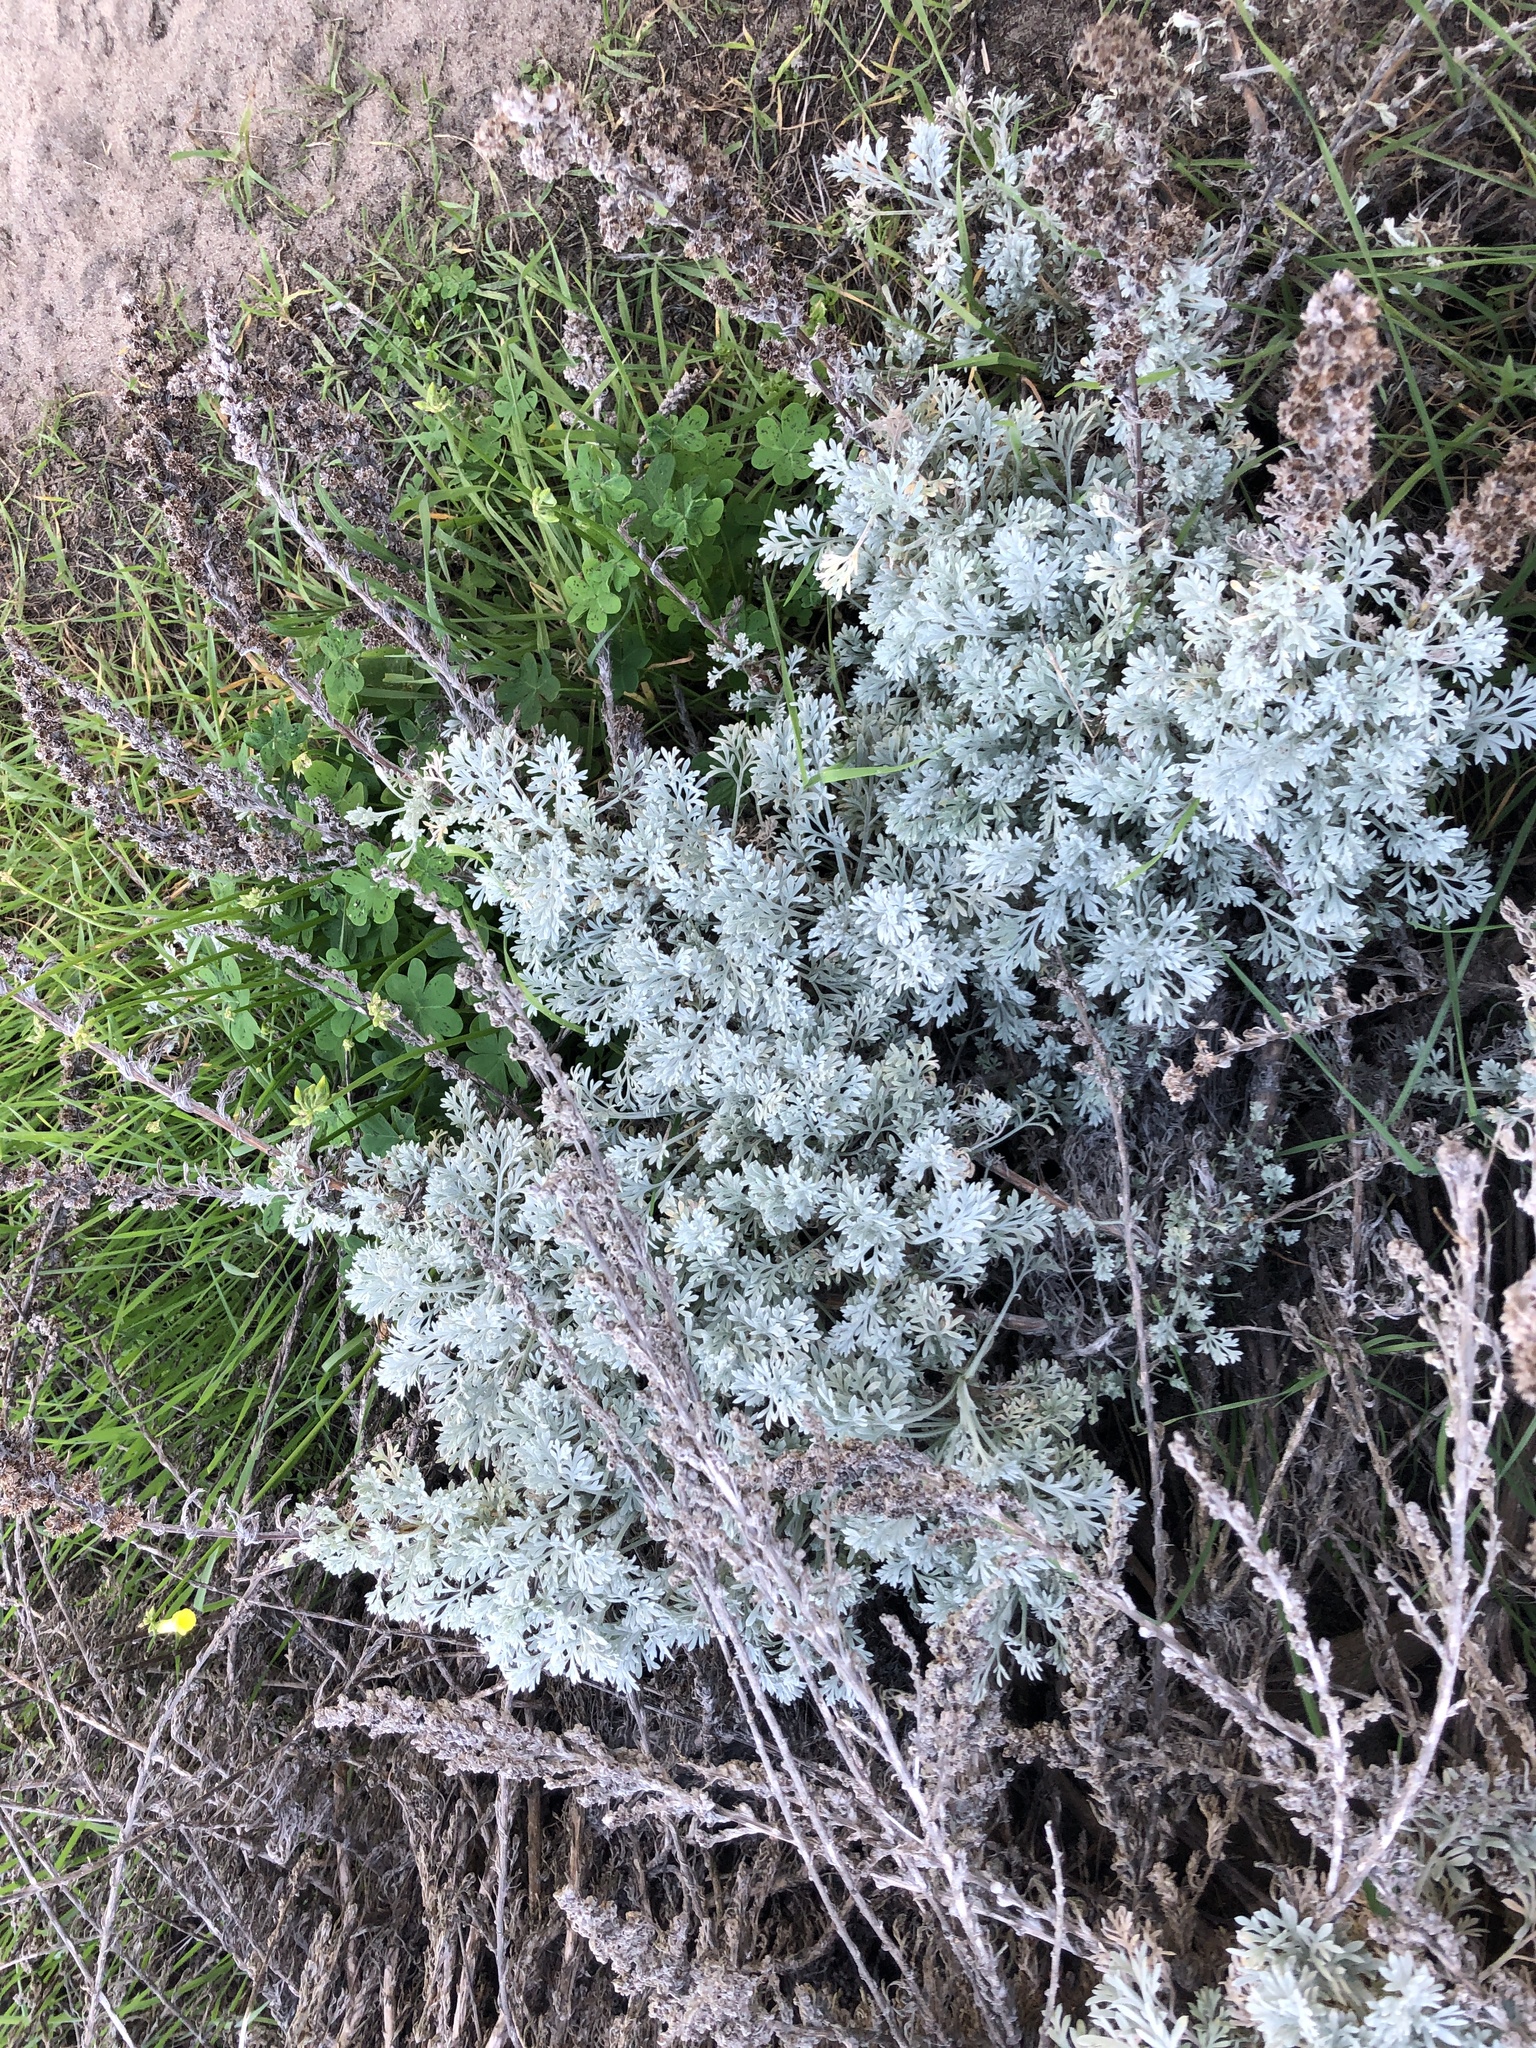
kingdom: Plantae
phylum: Tracheophyta
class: Magnoliopsida
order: Asterales
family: Asteraceae
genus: Artemisia
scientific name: Artemisia pycnocephala
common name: Coastal sagewort
